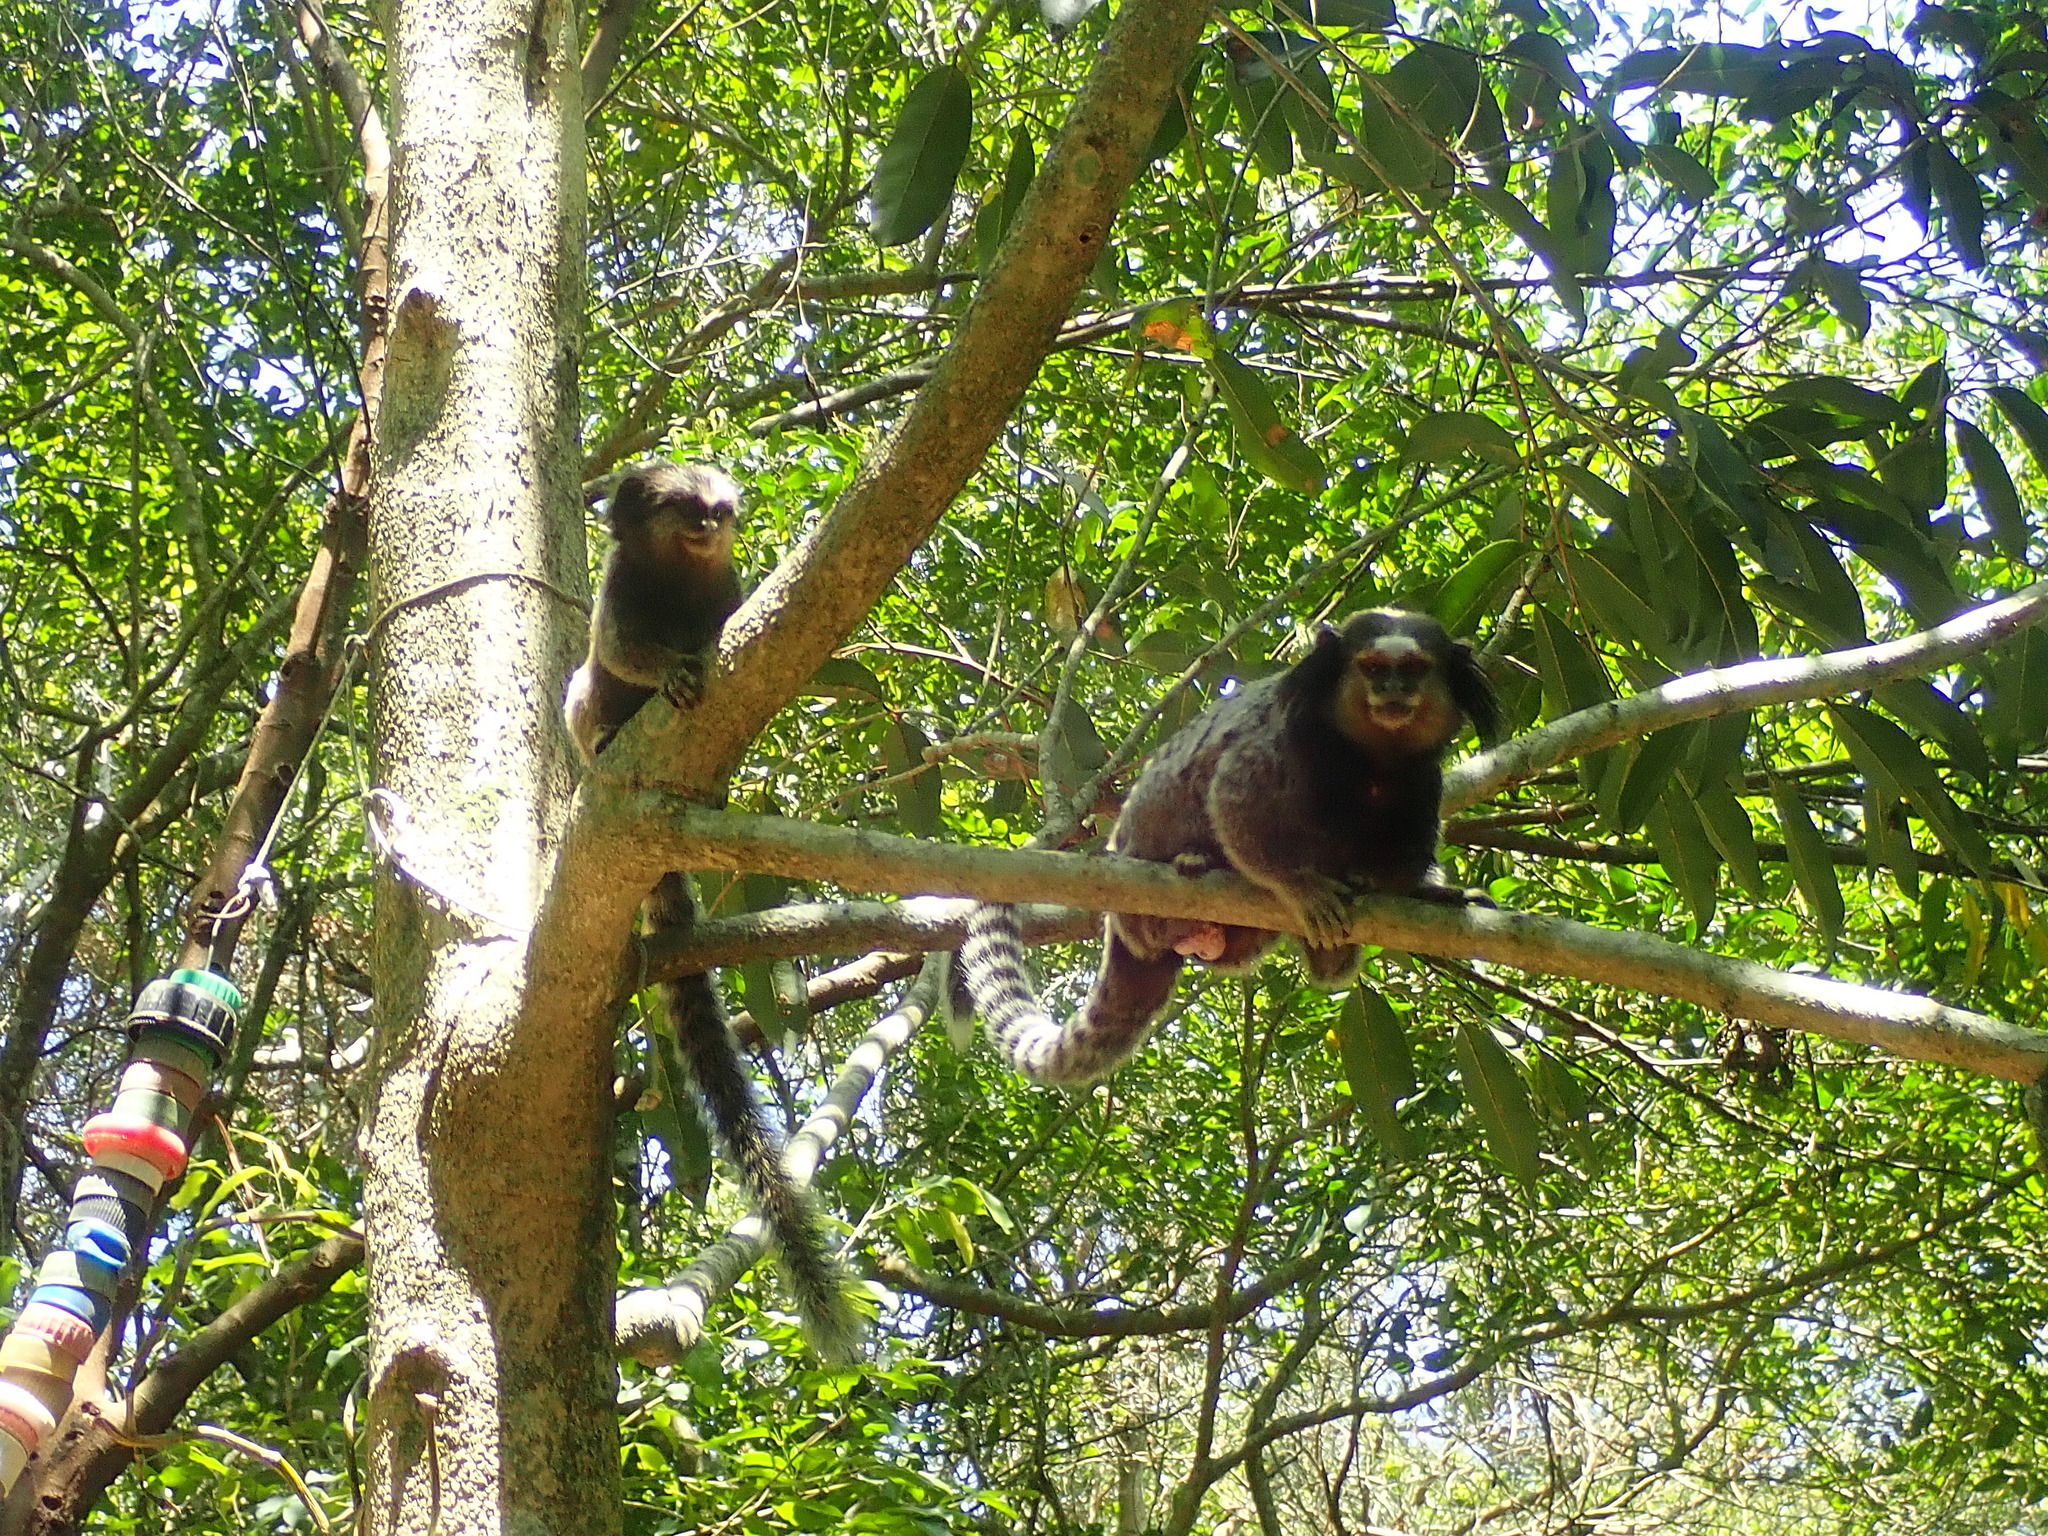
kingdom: Animalia
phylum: Chordata
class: Mammalia
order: Primates
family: Callitrichidae
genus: Callithrix
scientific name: Callithrix penicillata
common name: Black-tufted marmoset
